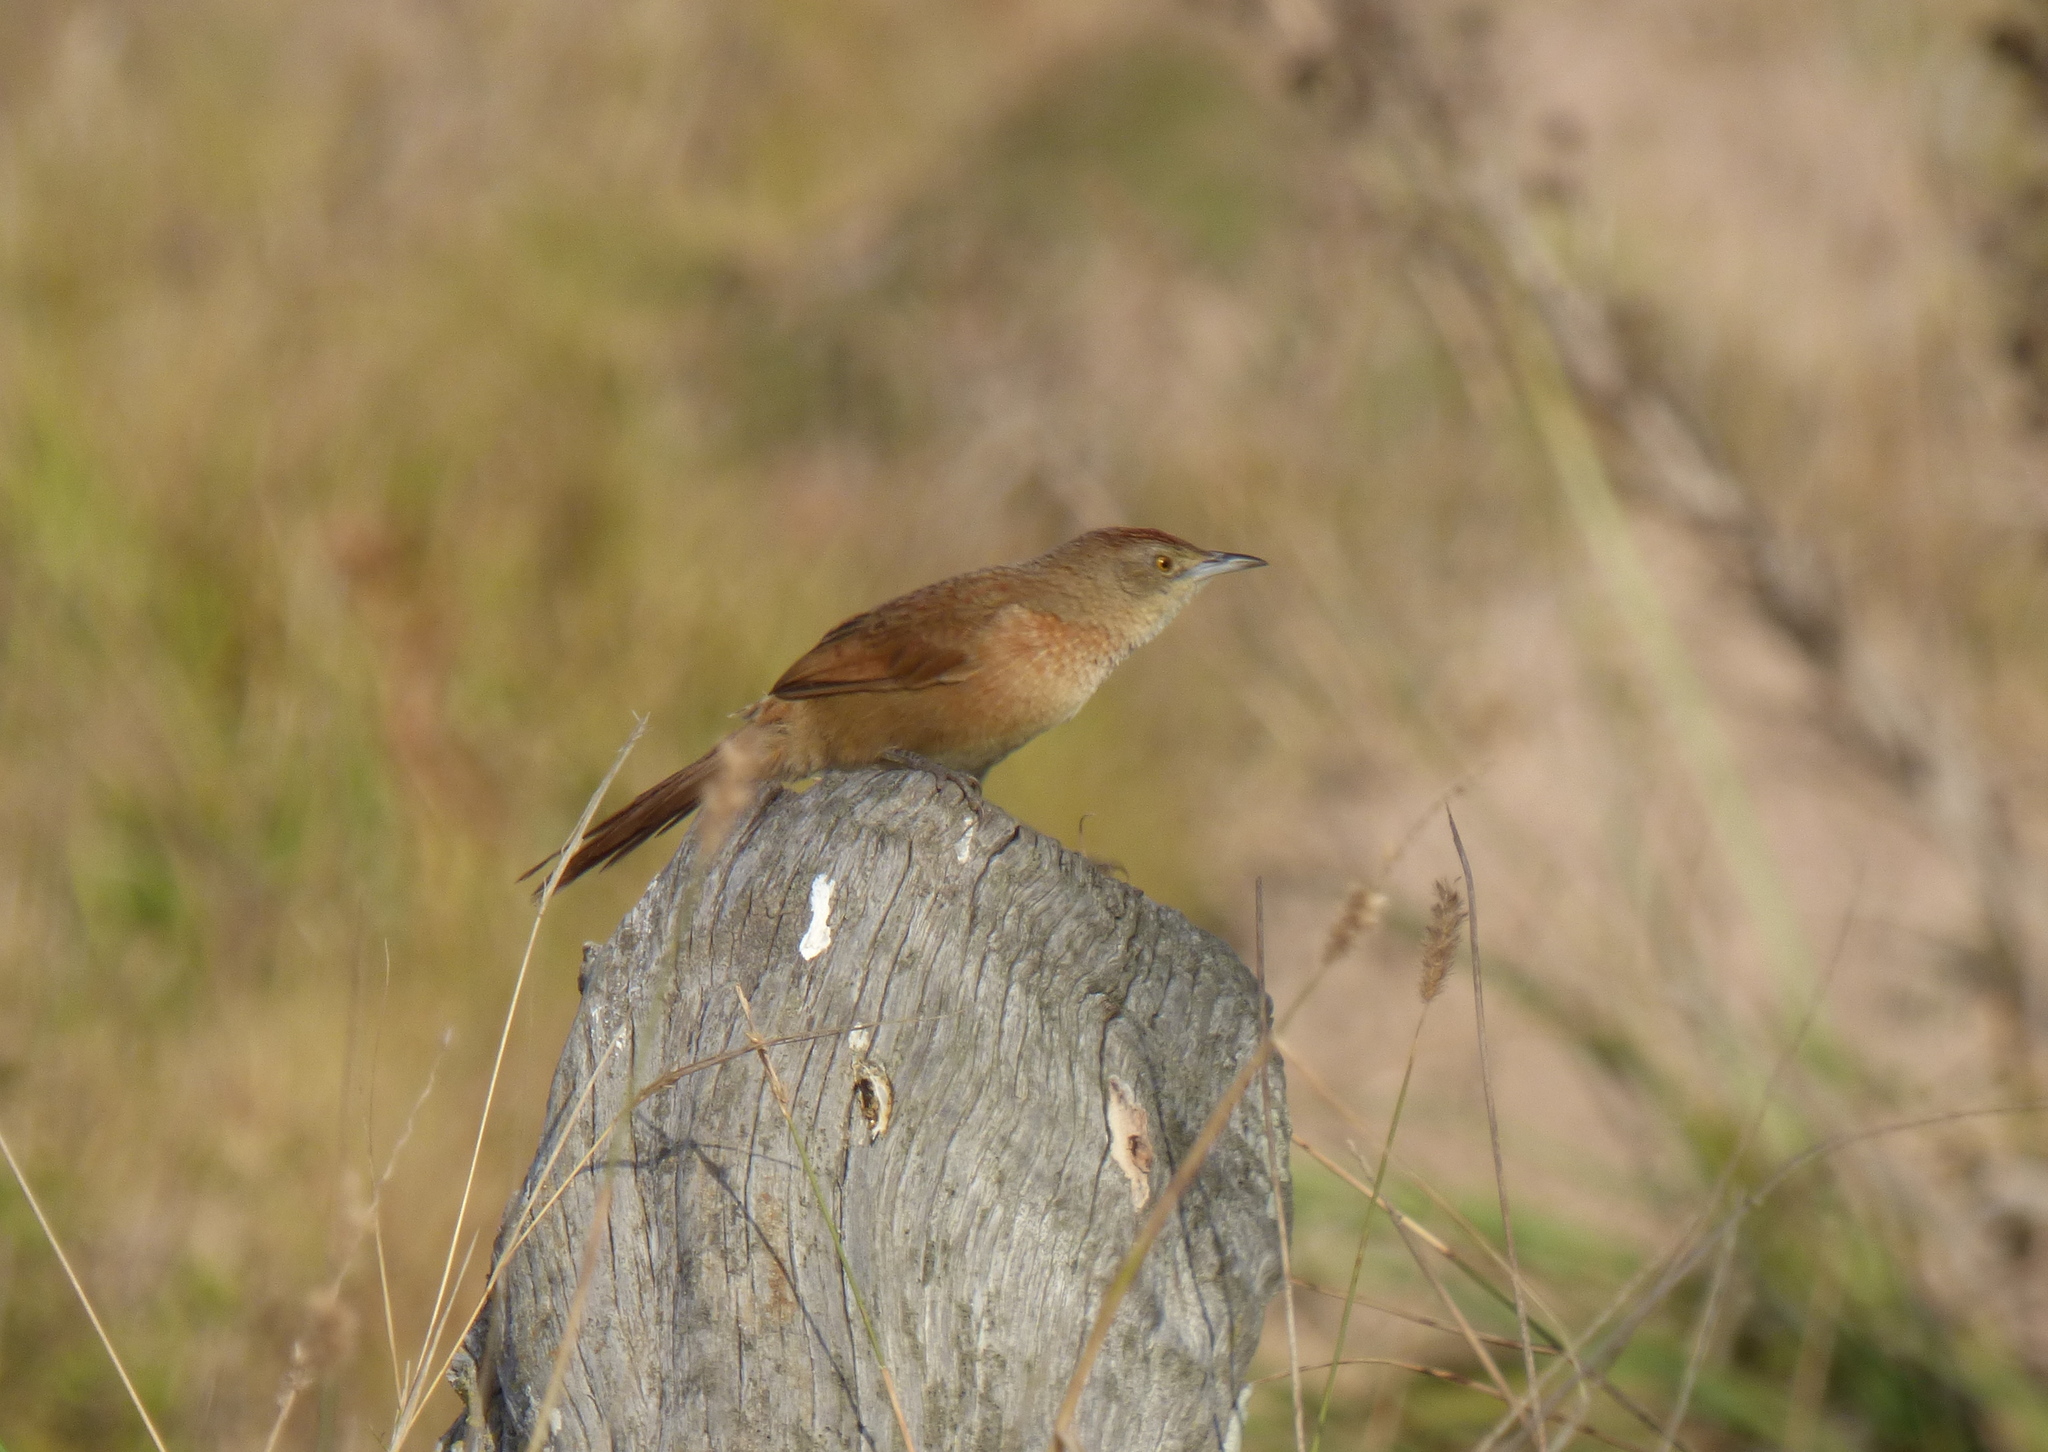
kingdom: Animalia
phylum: Chordata
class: Aves
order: Passeriformes
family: Furnariidae
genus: Phacellodomus
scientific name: Phacellodomus striaticollis
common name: Freckle-breasted thornbird
